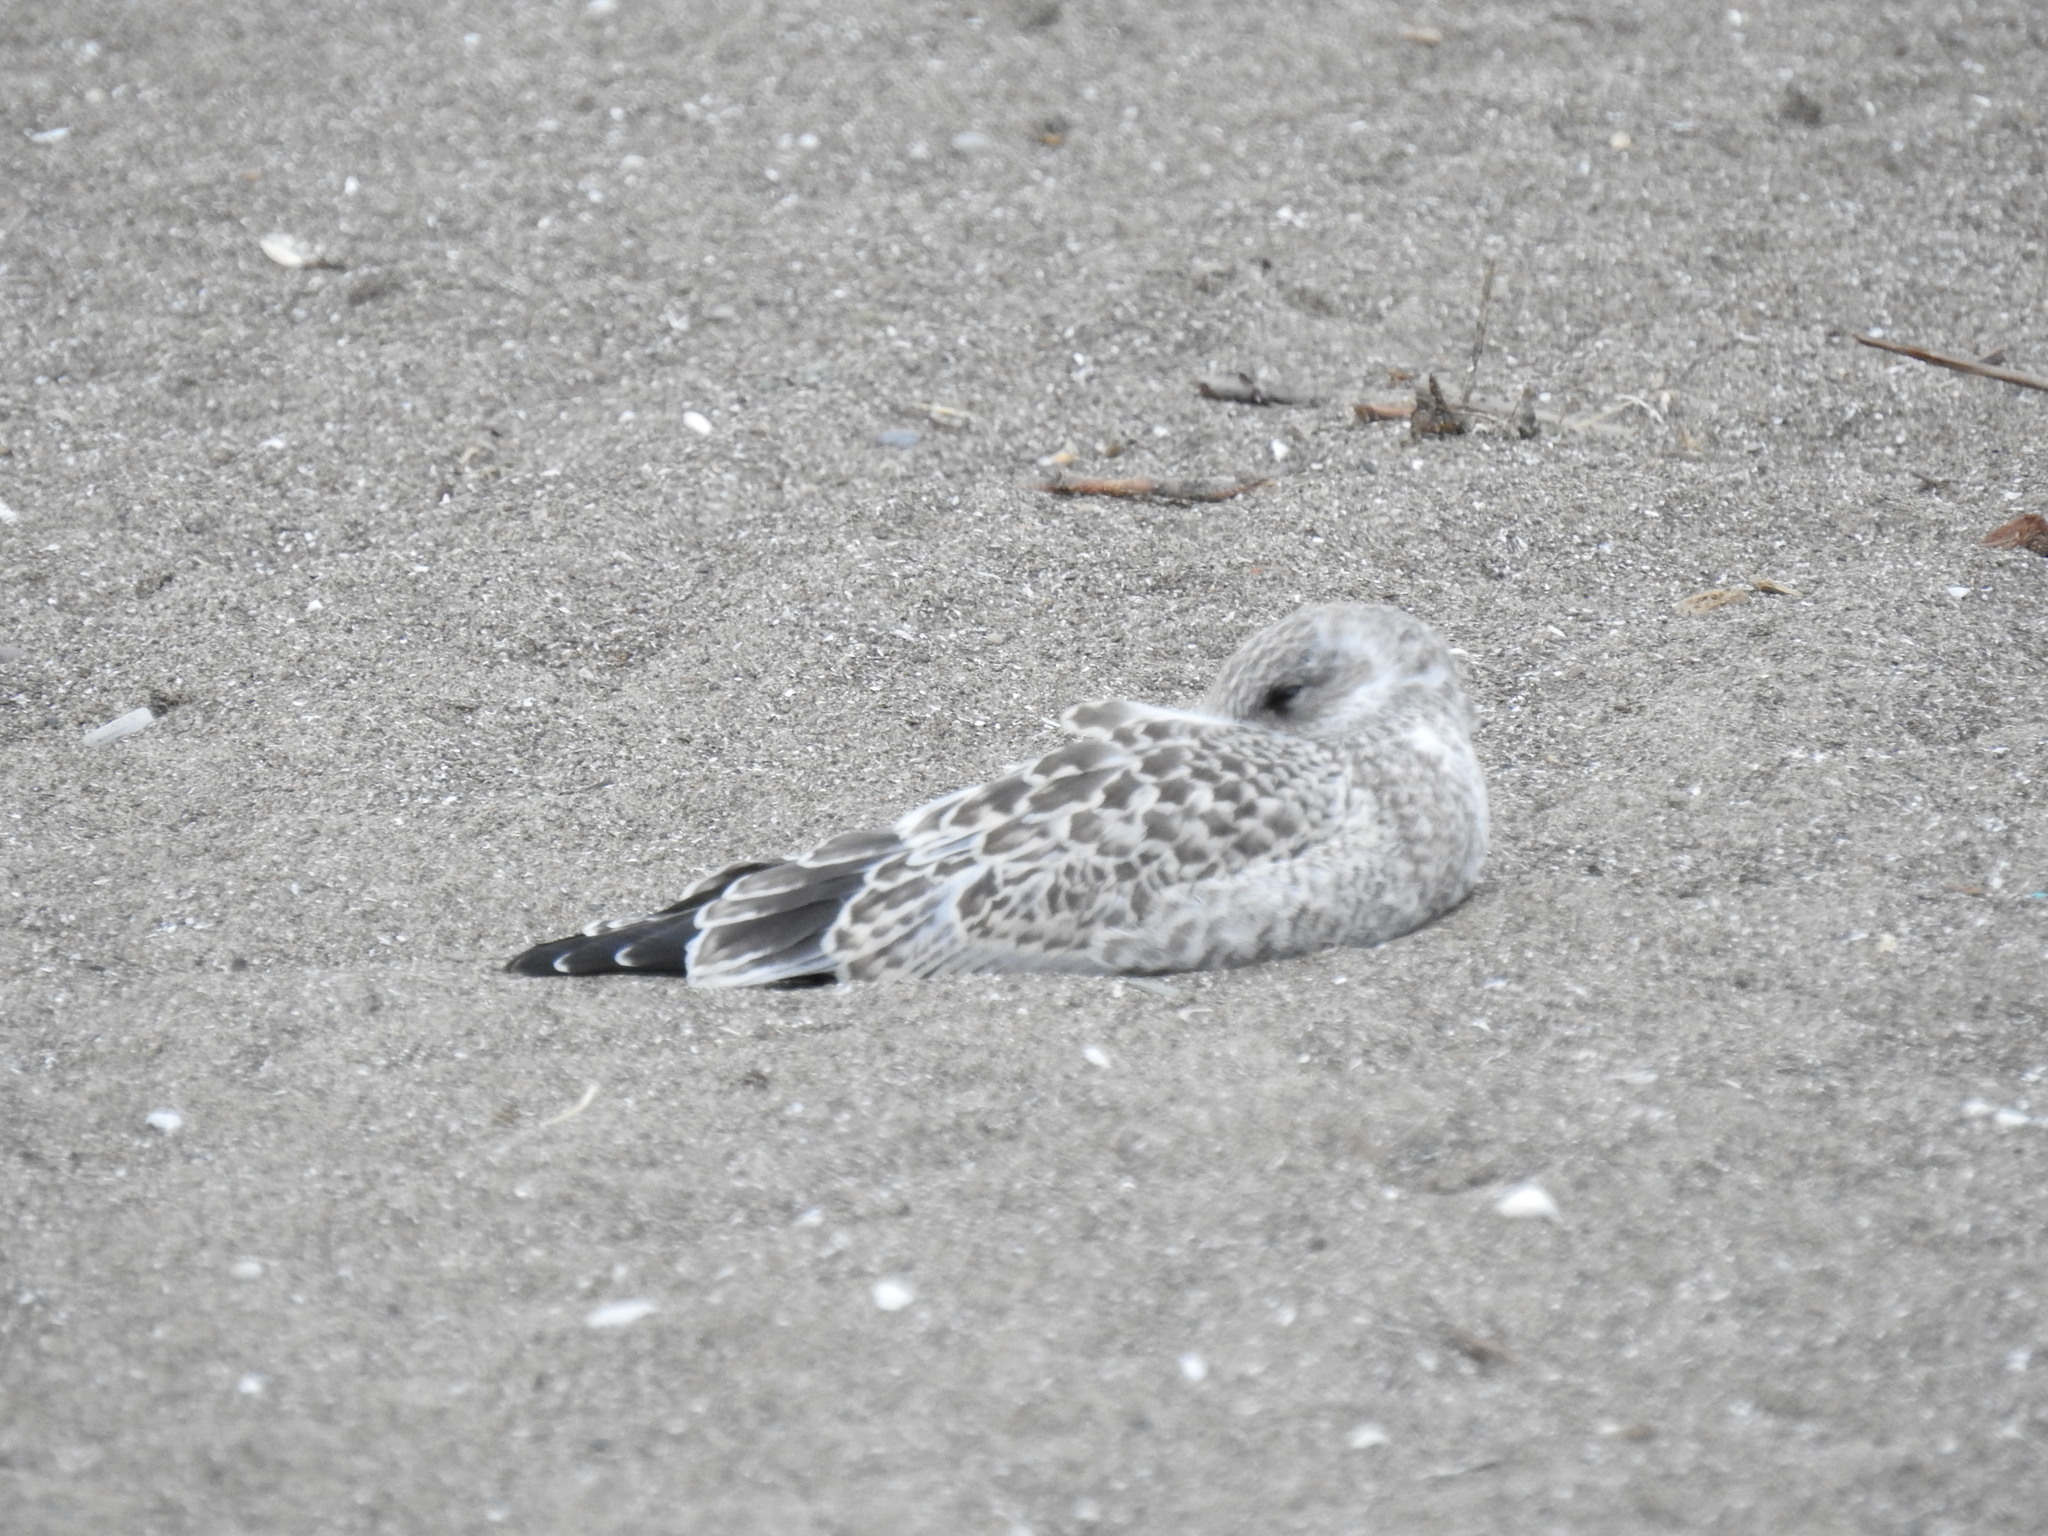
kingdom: Animalia
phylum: Chordata
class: Aves
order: Charadriiformes
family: Laridae
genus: Larus
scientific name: Larus delawarensis
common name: Ring-billed gull
